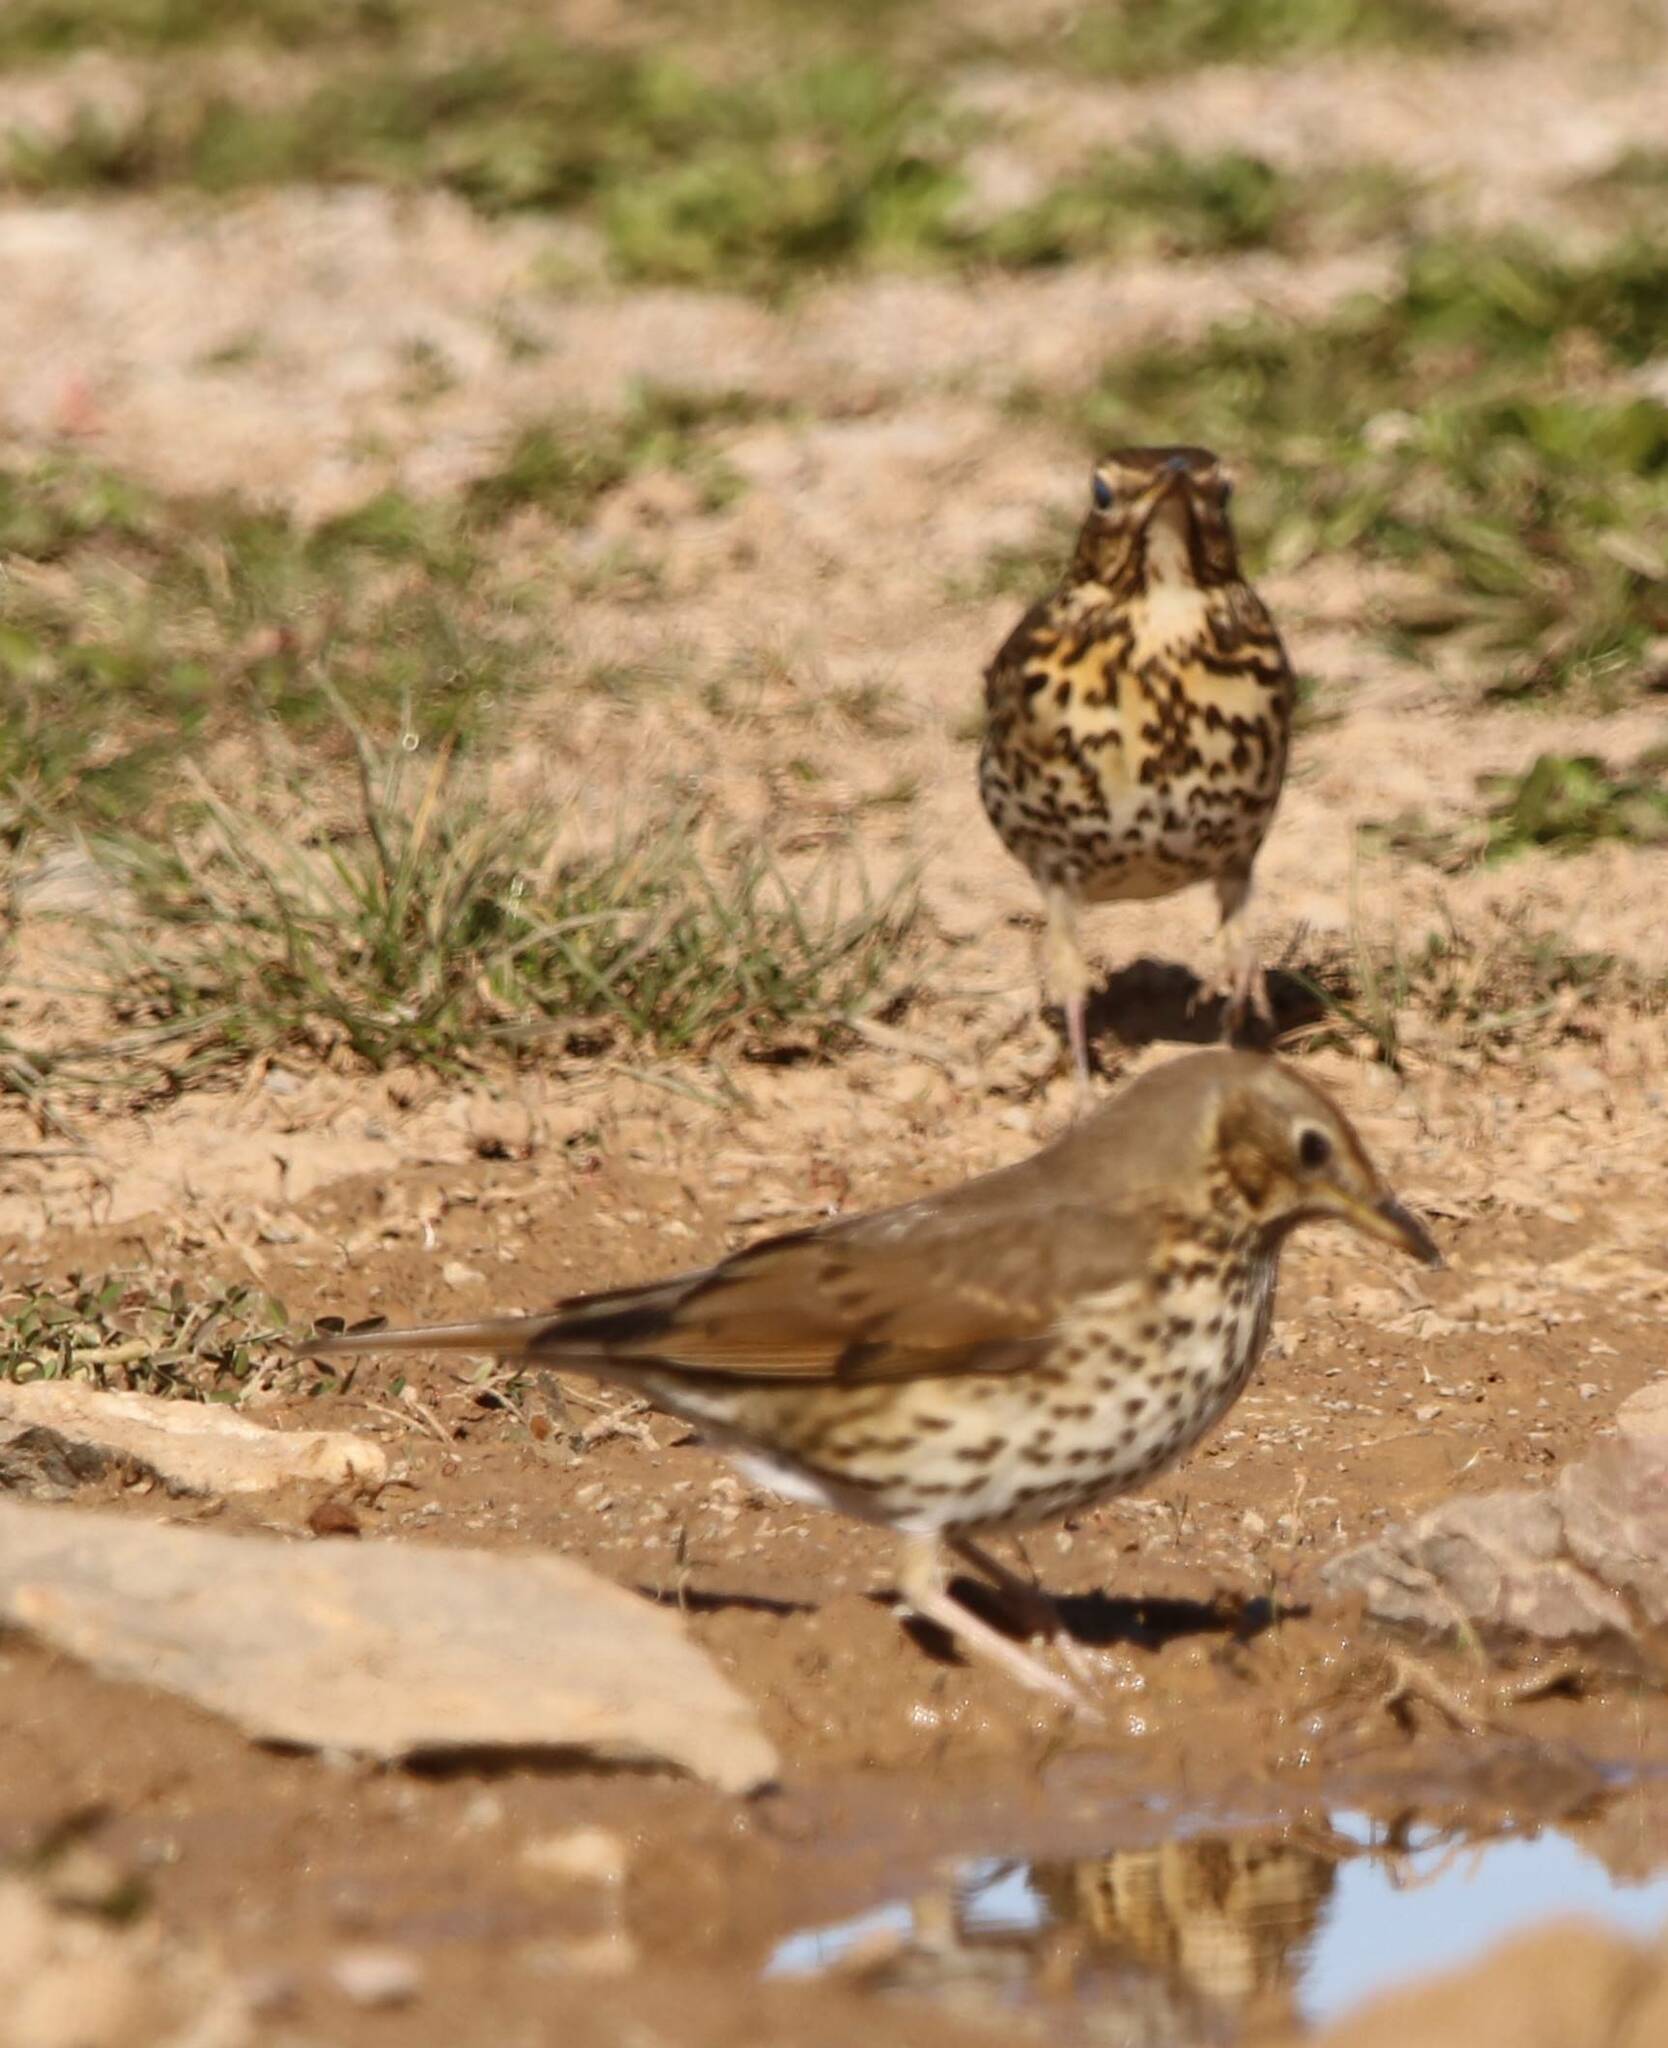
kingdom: Animalia
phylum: Chordata
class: Aves
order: Passeriformes
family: Turdidae
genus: Turdus
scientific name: Turdus philomelos
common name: Song thrush
